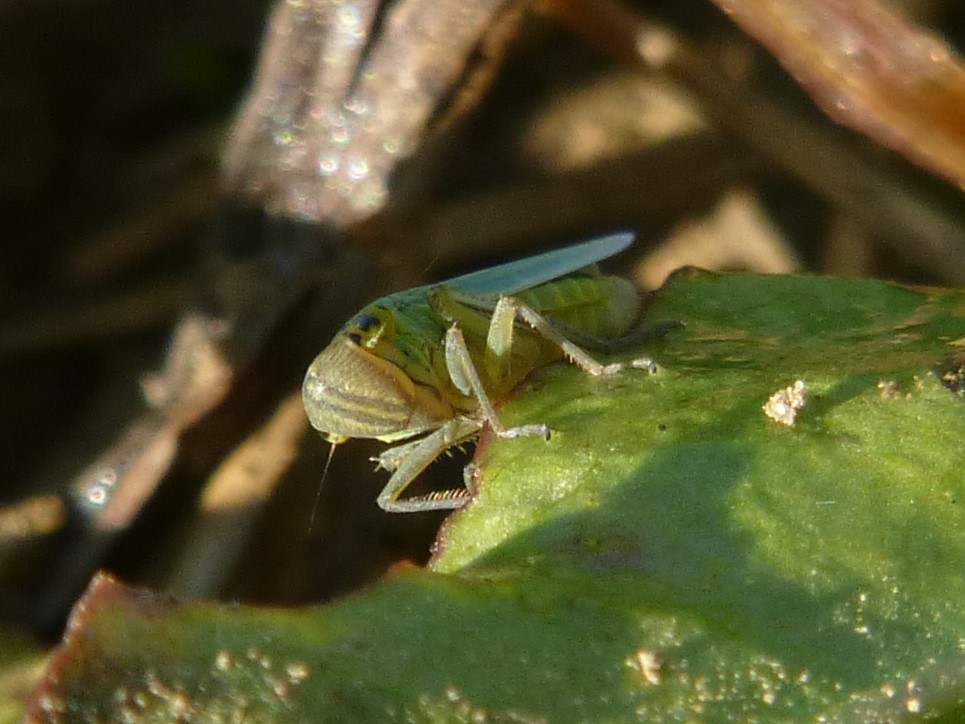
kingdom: Animalia
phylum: Arthropoda
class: Insecta
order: Hemiptera
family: Cicadellidae
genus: Cicadella
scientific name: Cicadella viridis
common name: Leafhopper
